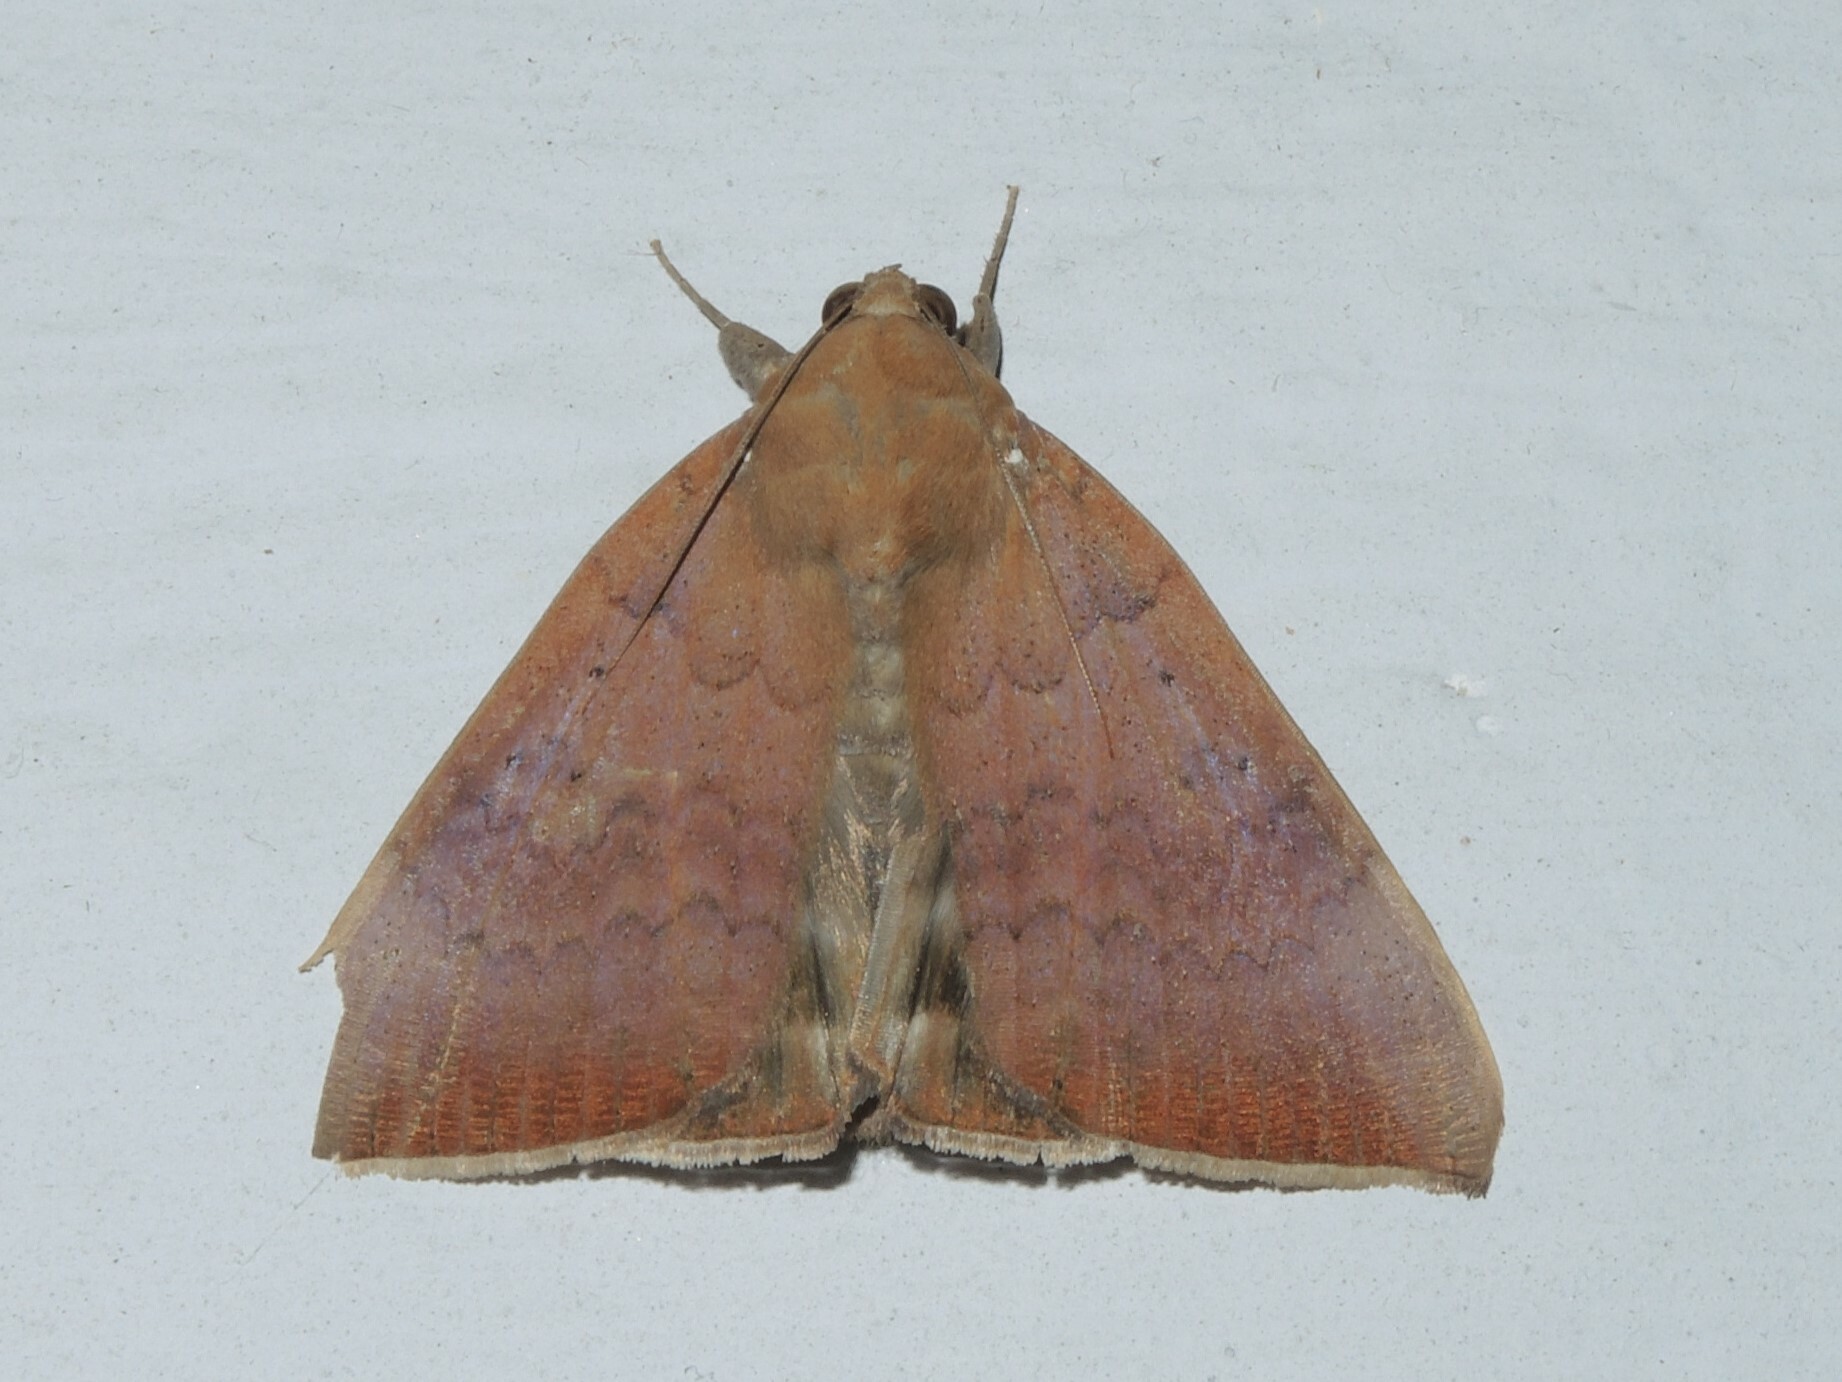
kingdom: Animalia
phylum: Arthropoda
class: Insecta
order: Lepidoptera
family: Erebidae
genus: Achaea
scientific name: Achaea serva
